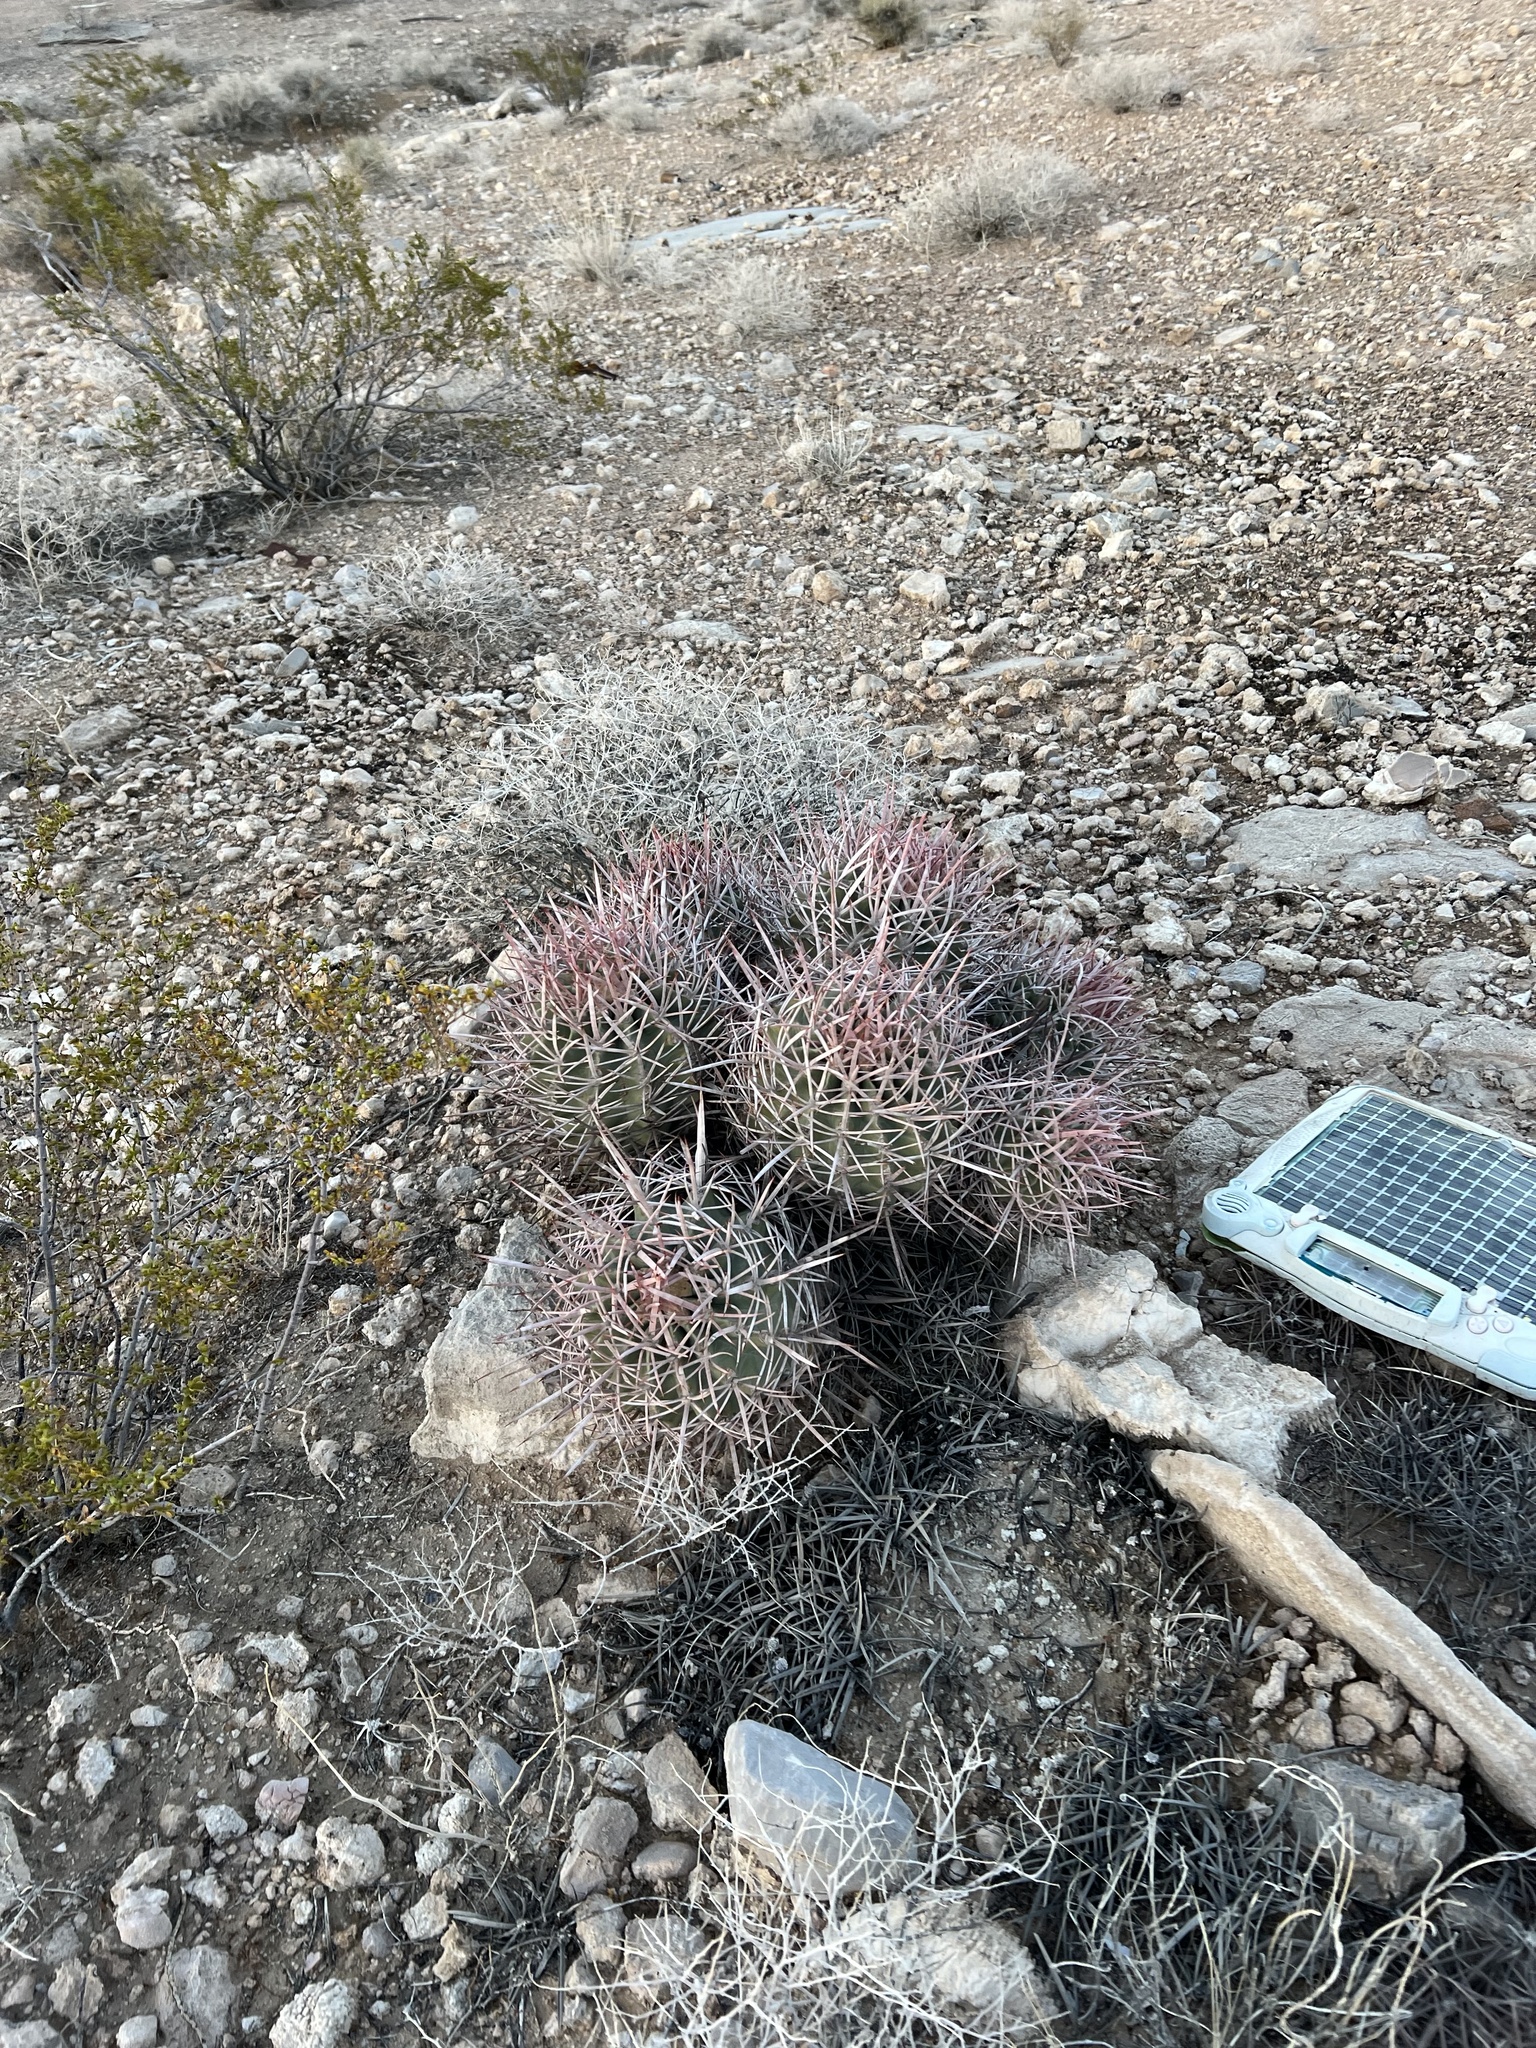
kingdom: Plantae
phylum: Tracheophyta
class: Magnoliopsida
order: Caryophyllales
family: Cactaceae
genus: Echinocactus
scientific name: Echinocactus polycephalus
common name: Cottontop cactus
